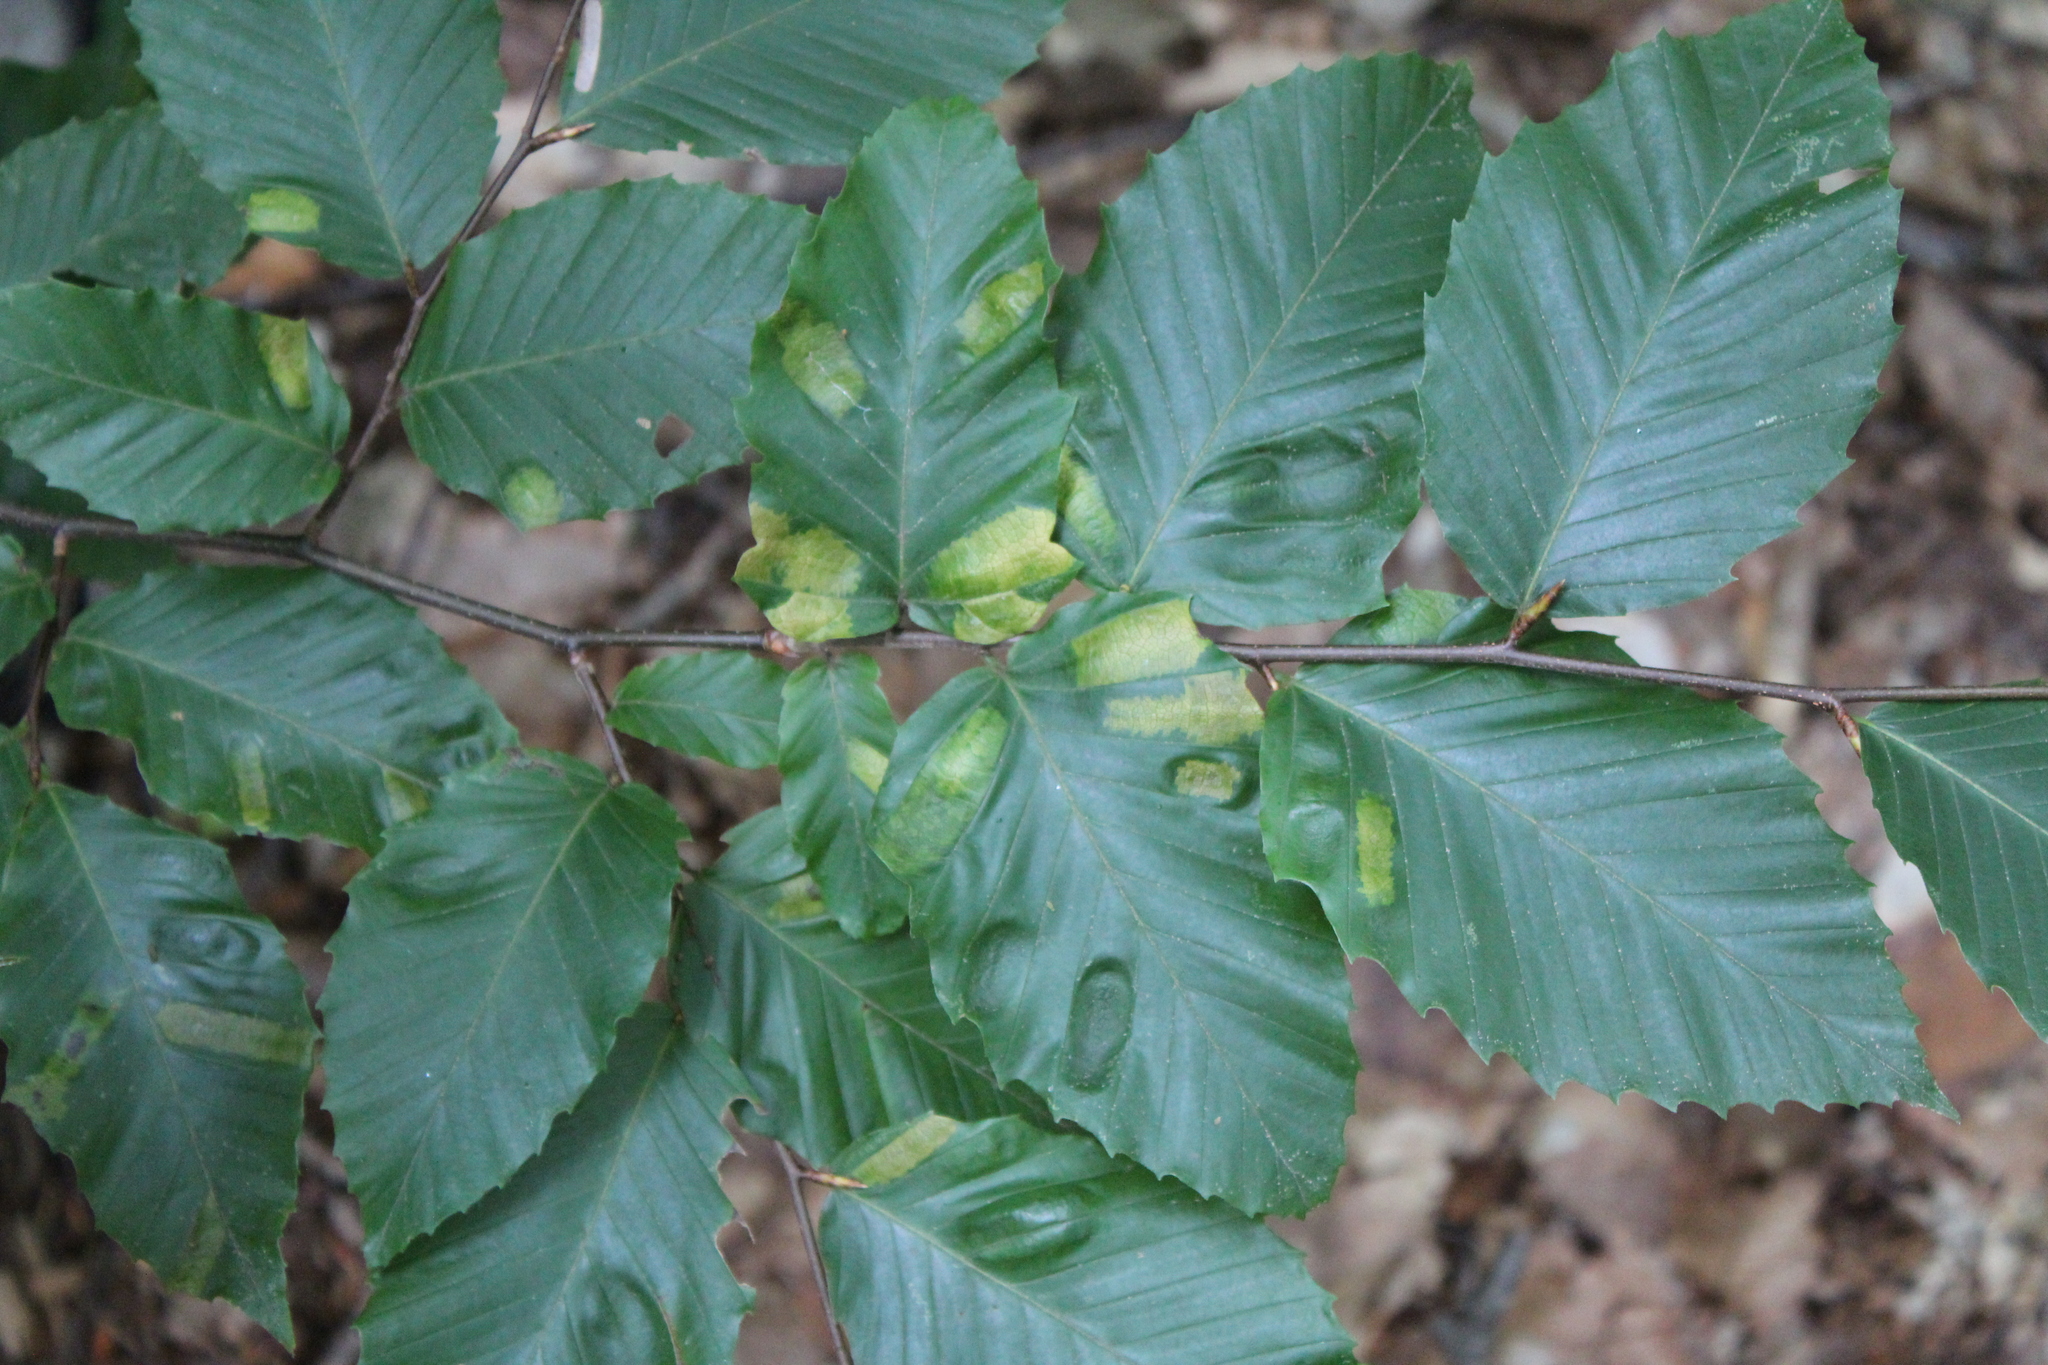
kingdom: Plantae
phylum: Tracheophyta
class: Magnoliopsida
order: Fagales
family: Fagaceae
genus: Fagus
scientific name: Fagus grandifolia
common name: American beech
